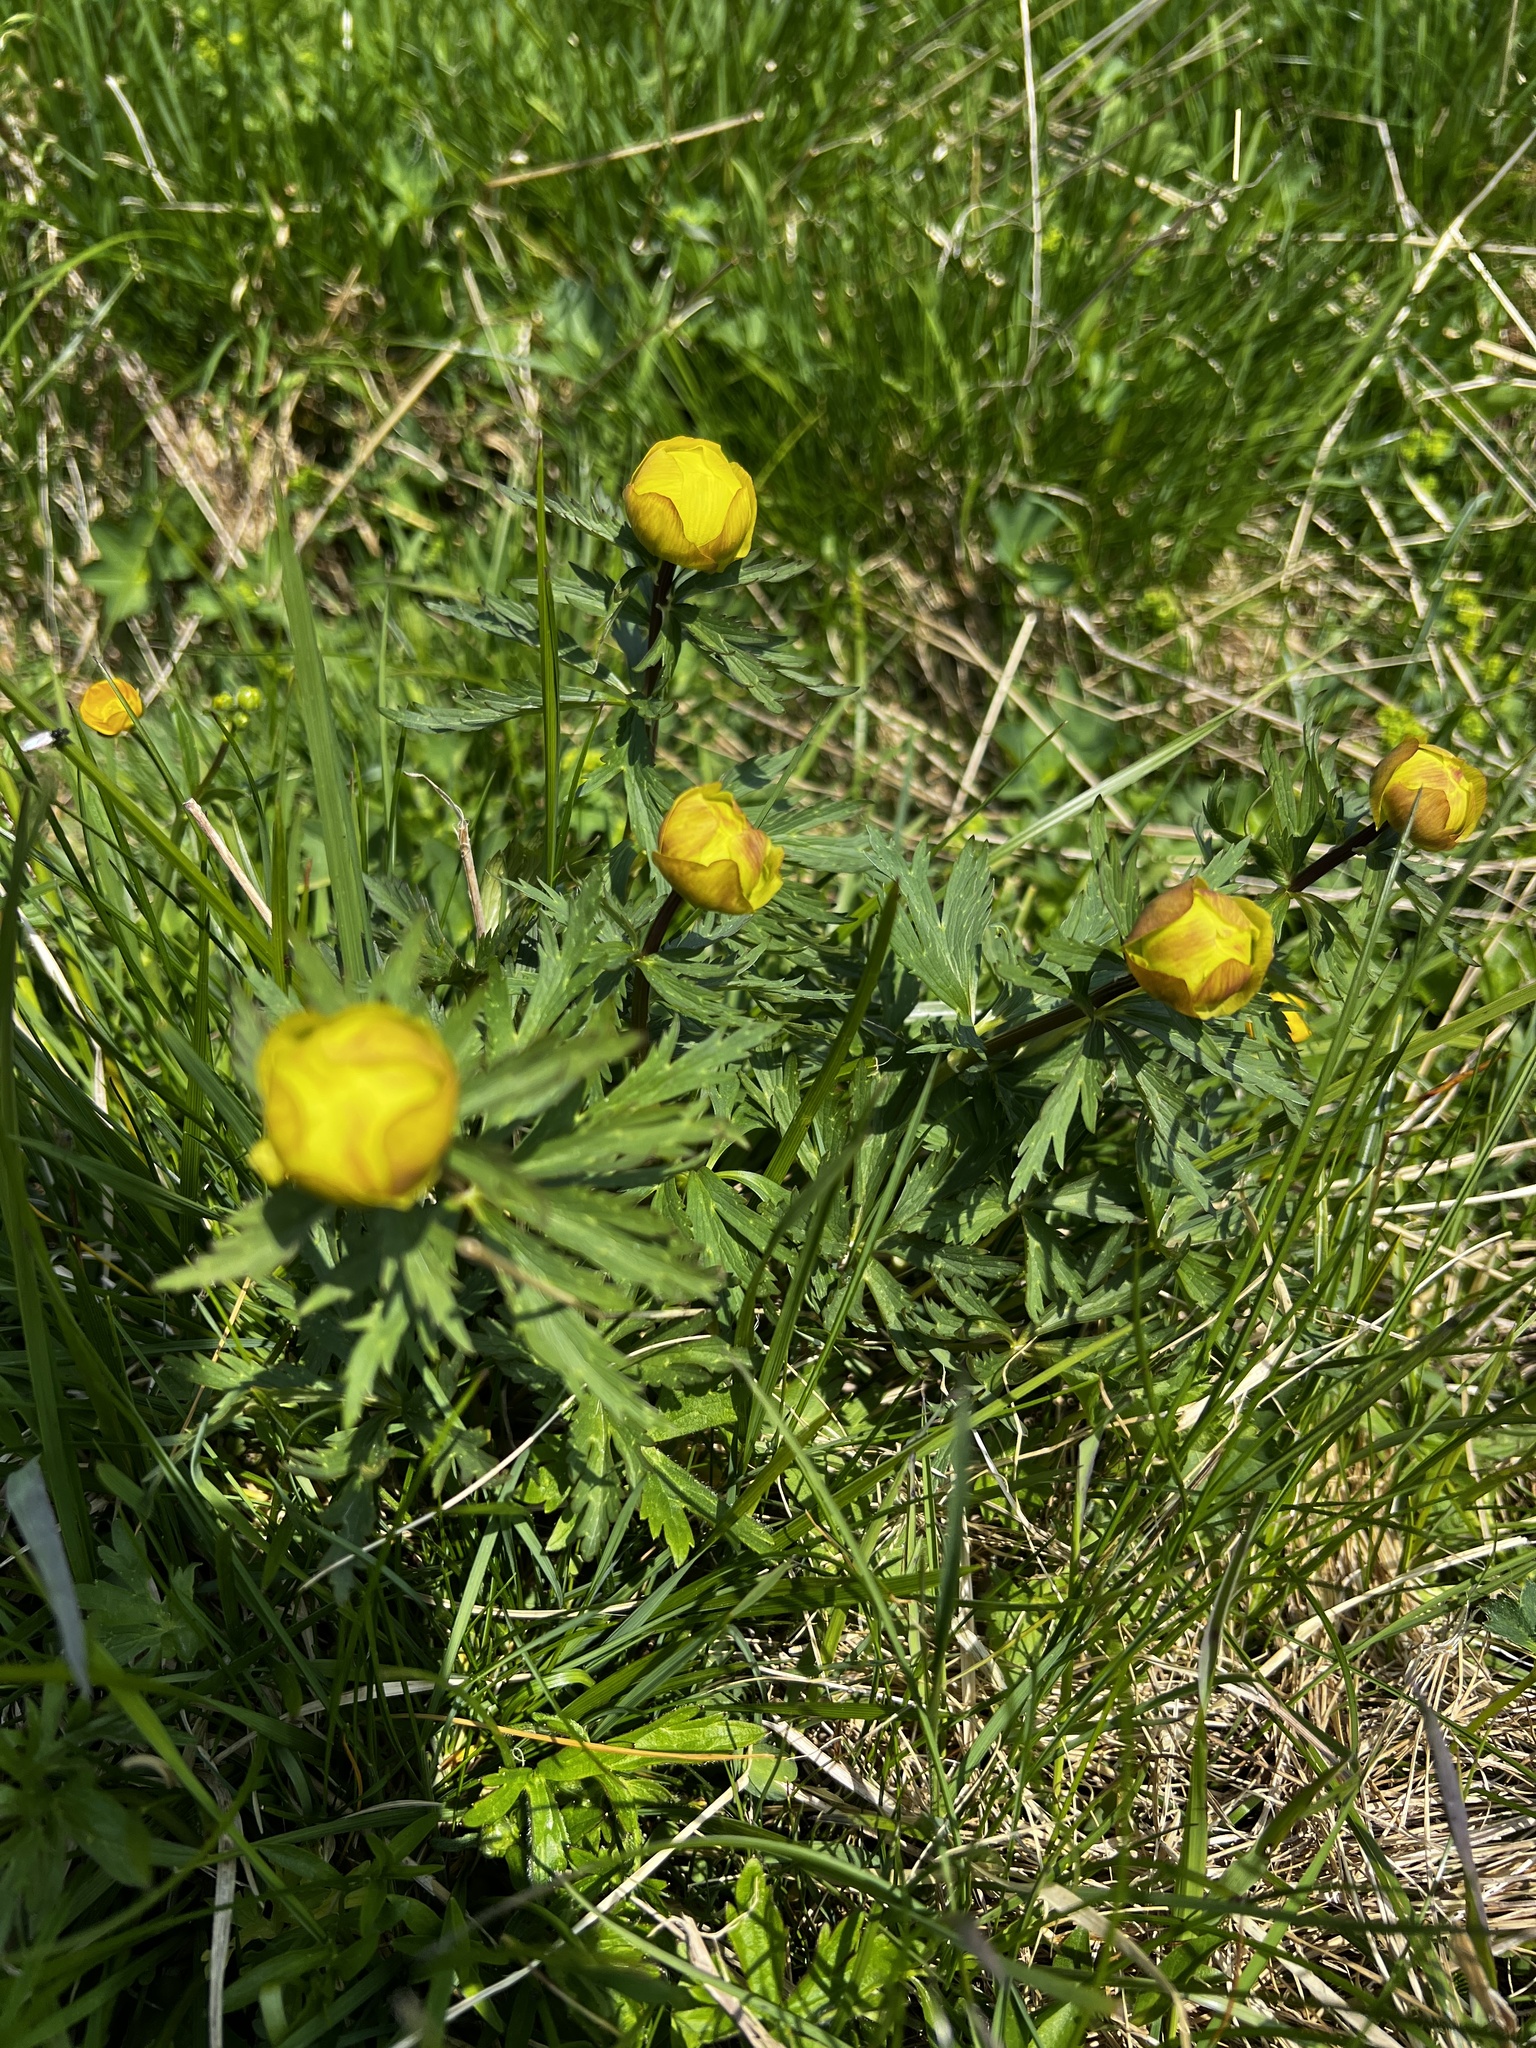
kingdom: Plantae
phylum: Tracheophyta
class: Magnoliopsida
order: Ranunculales
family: Ranunculaceae
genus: Trollius
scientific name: Trollius europaeus
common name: European globeflower
